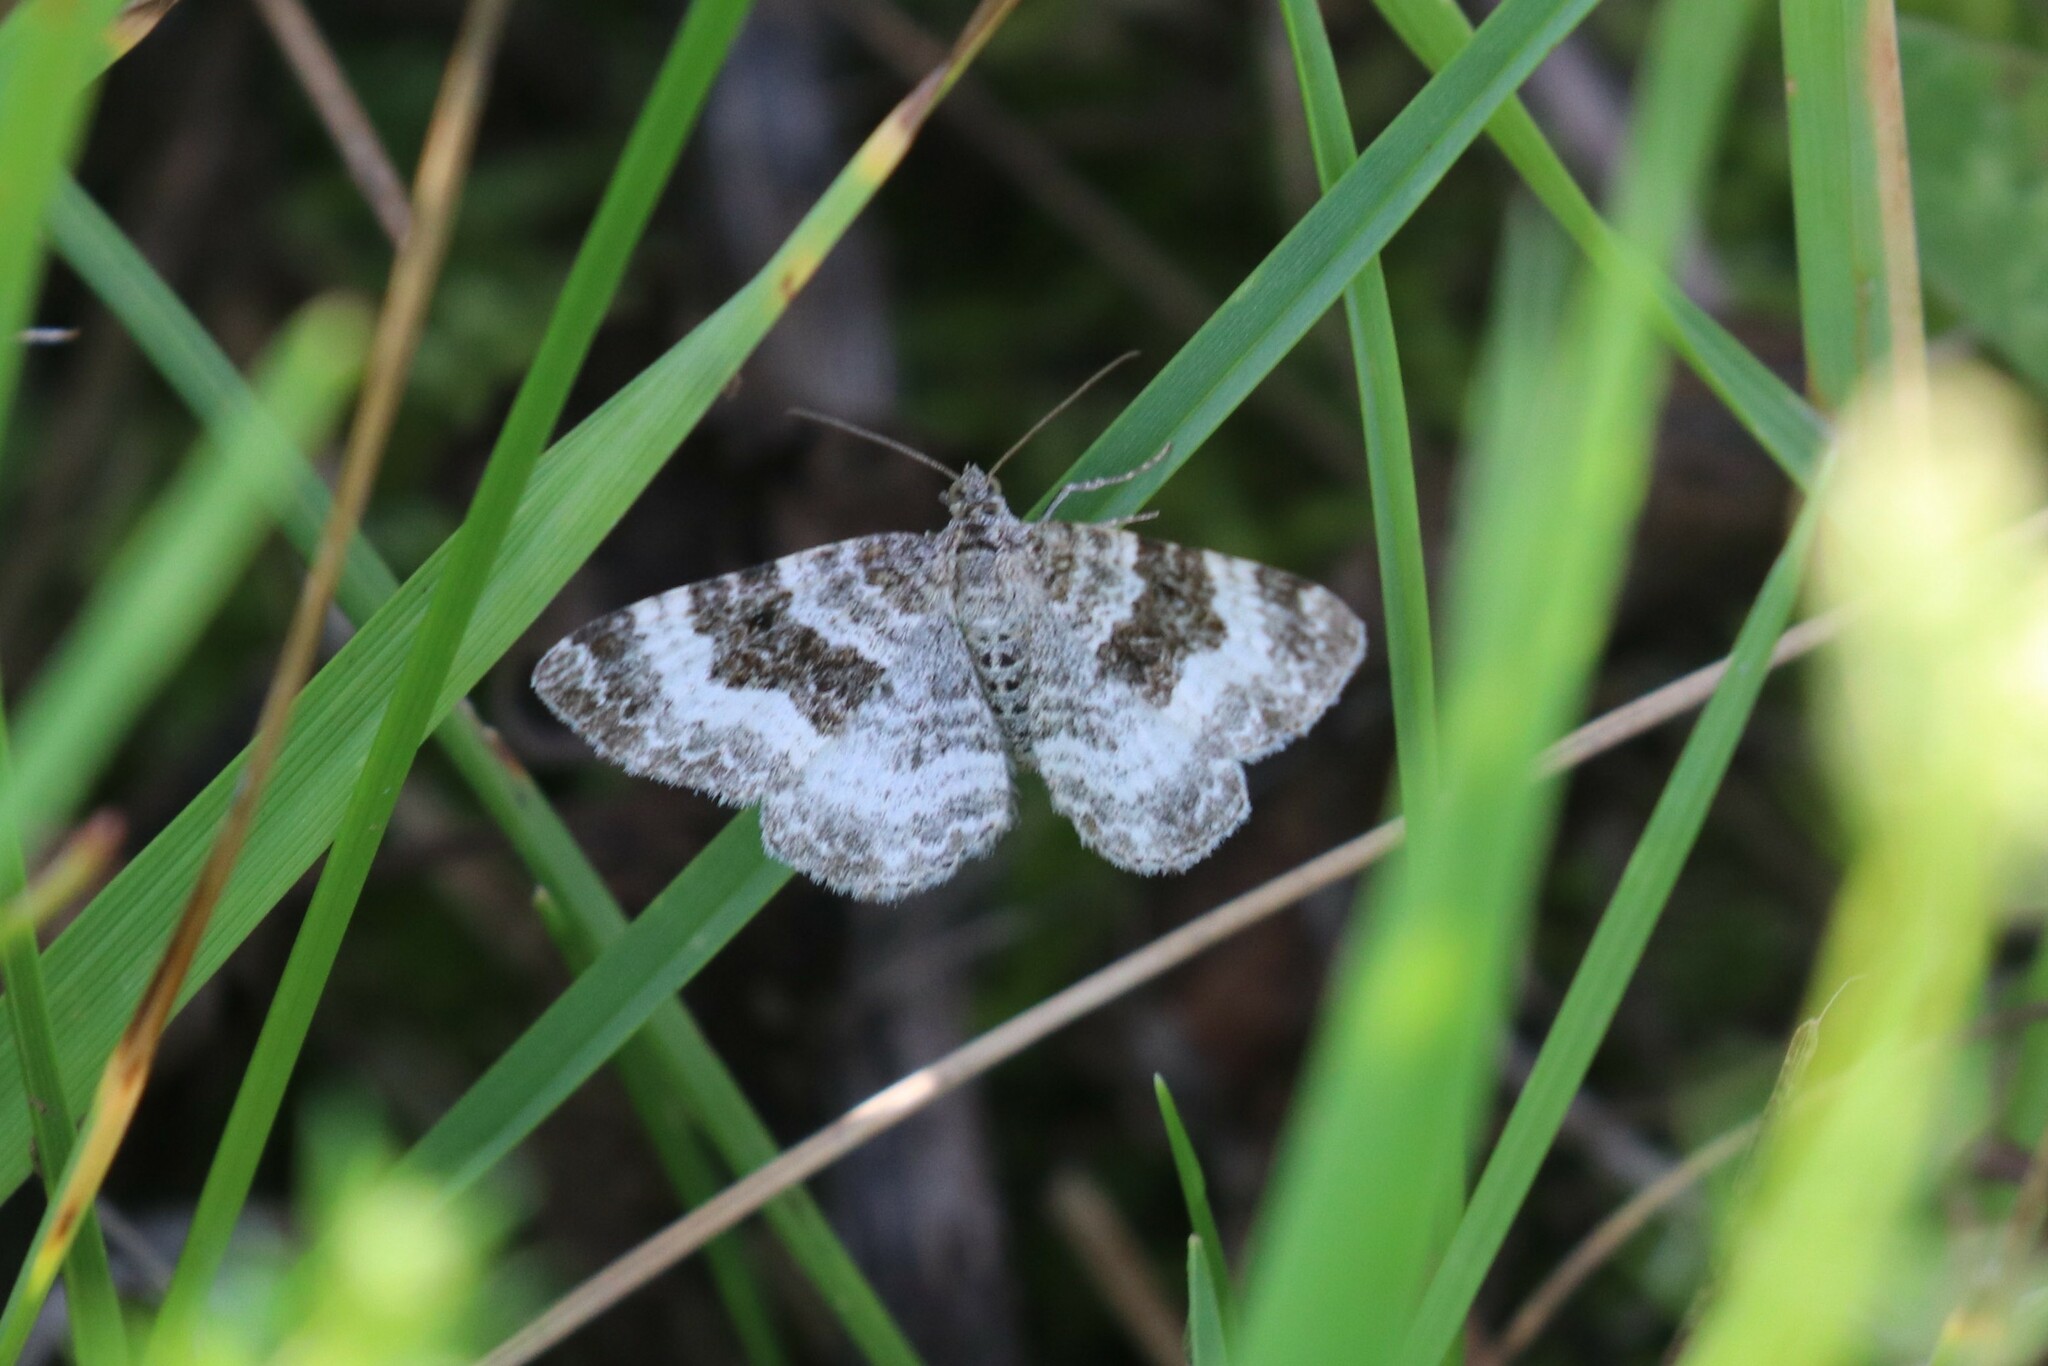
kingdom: Animalia
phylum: Arthropoda
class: Insecta
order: Lepidoptera
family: Geometridae
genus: Epirrhoe
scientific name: Epirrhoe alternata
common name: Common carpet
